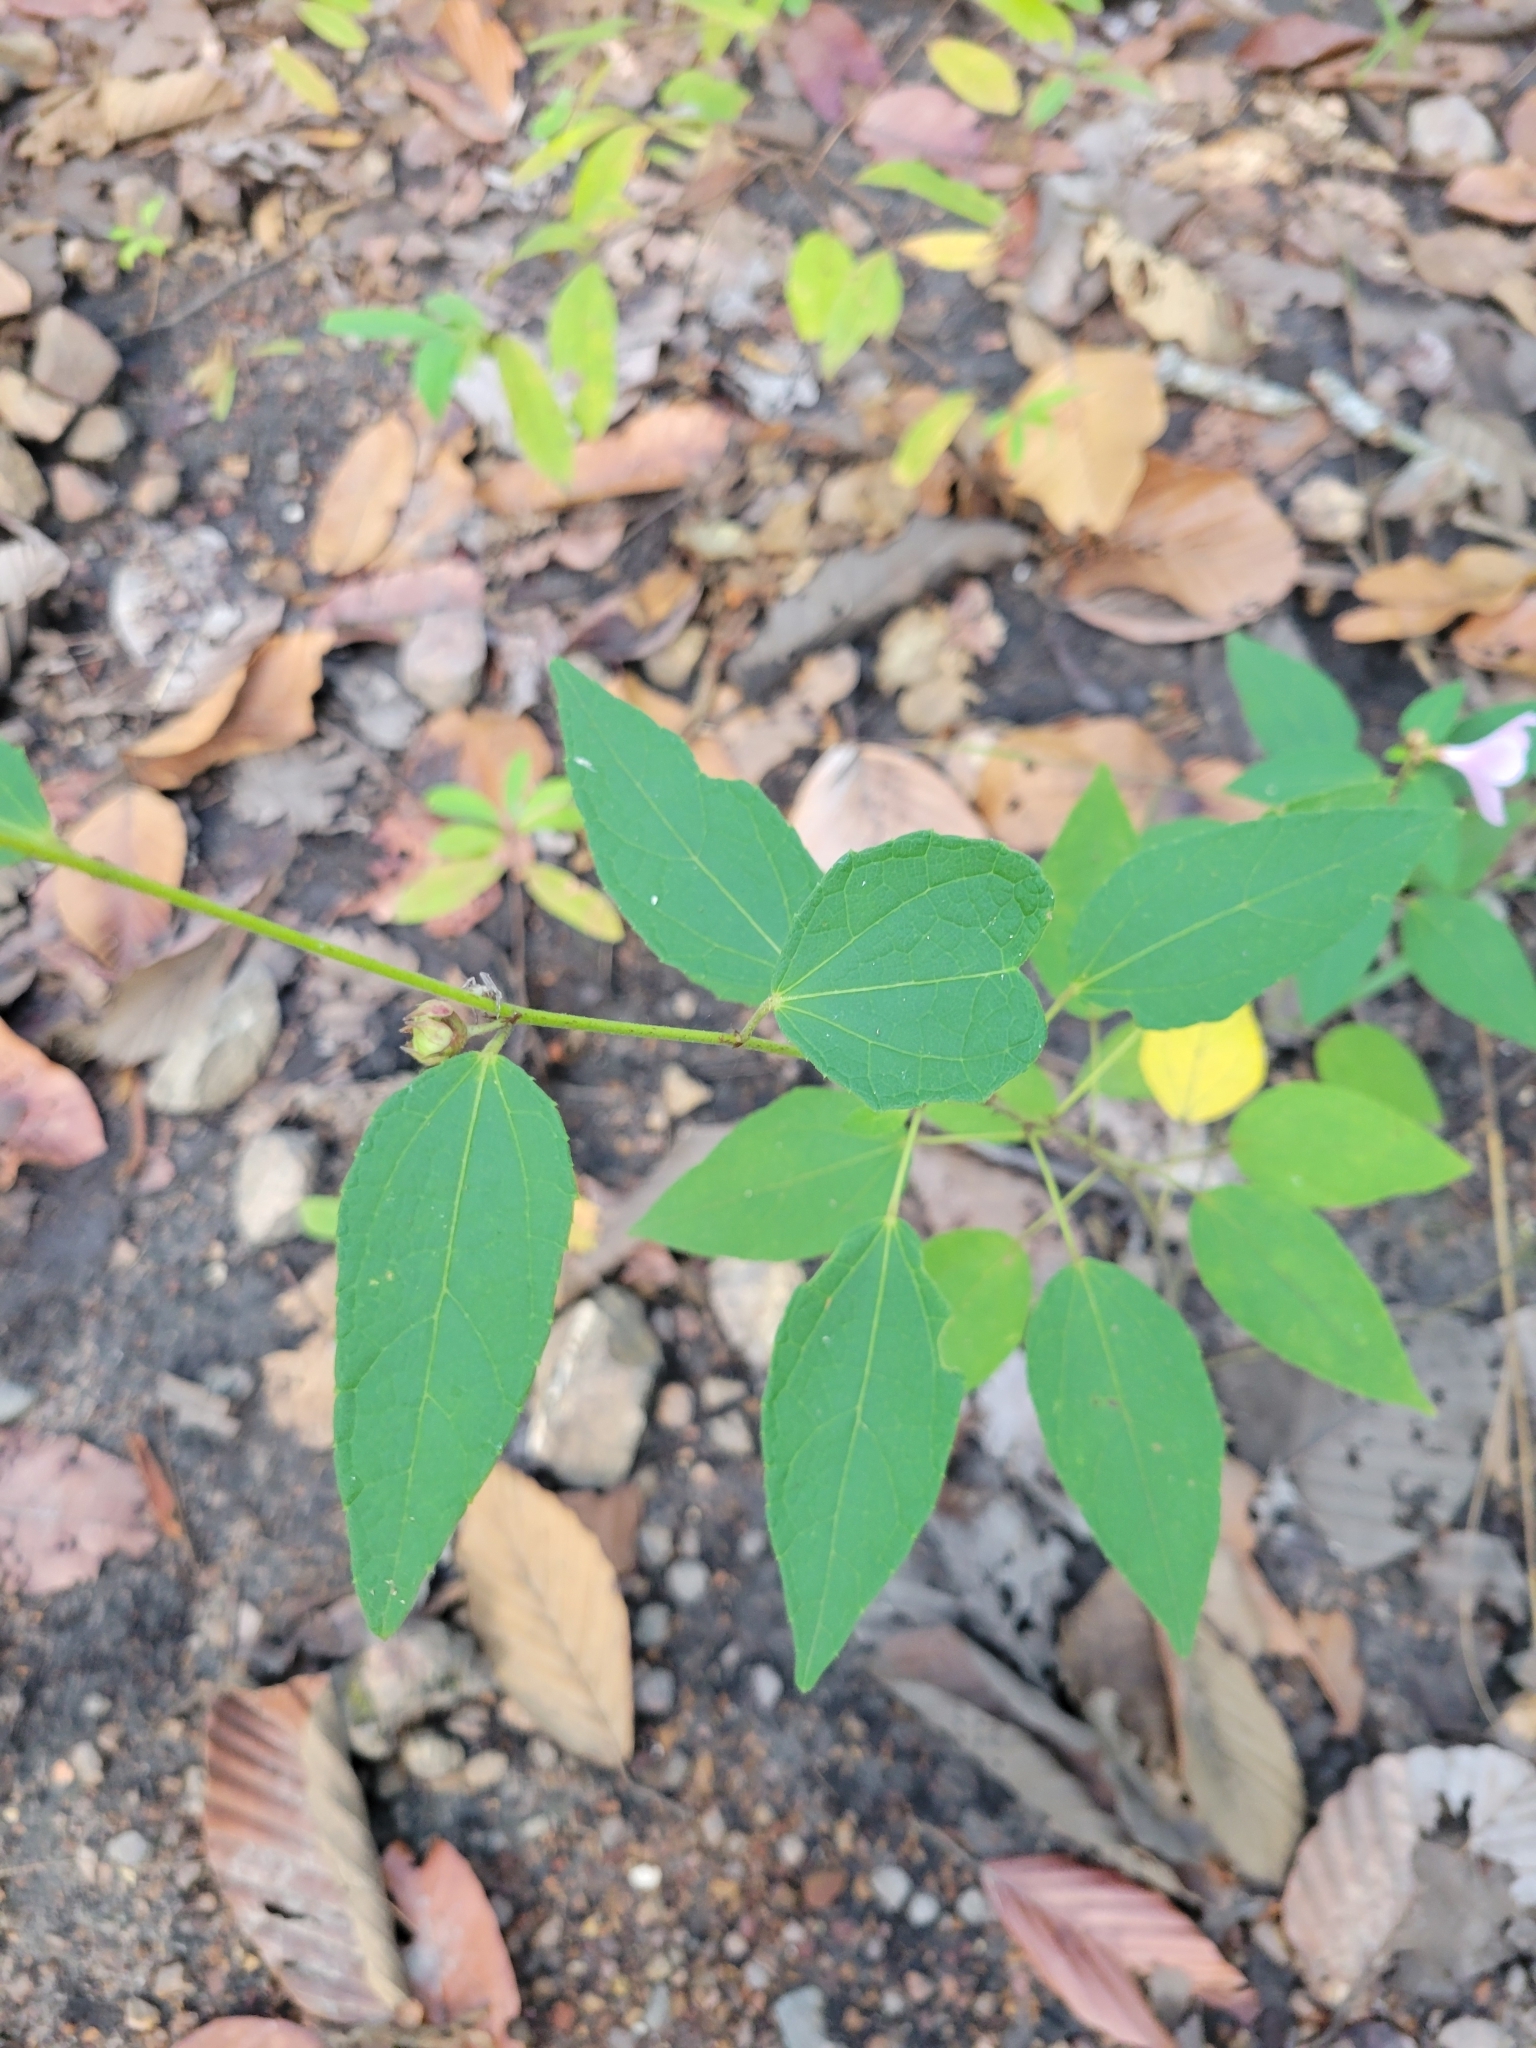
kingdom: Plantae
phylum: Tracheophyta
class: Magnoliopsida
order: Malvales
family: Malvaceae
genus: Urena
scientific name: Urena lobata
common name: Caesarweed
